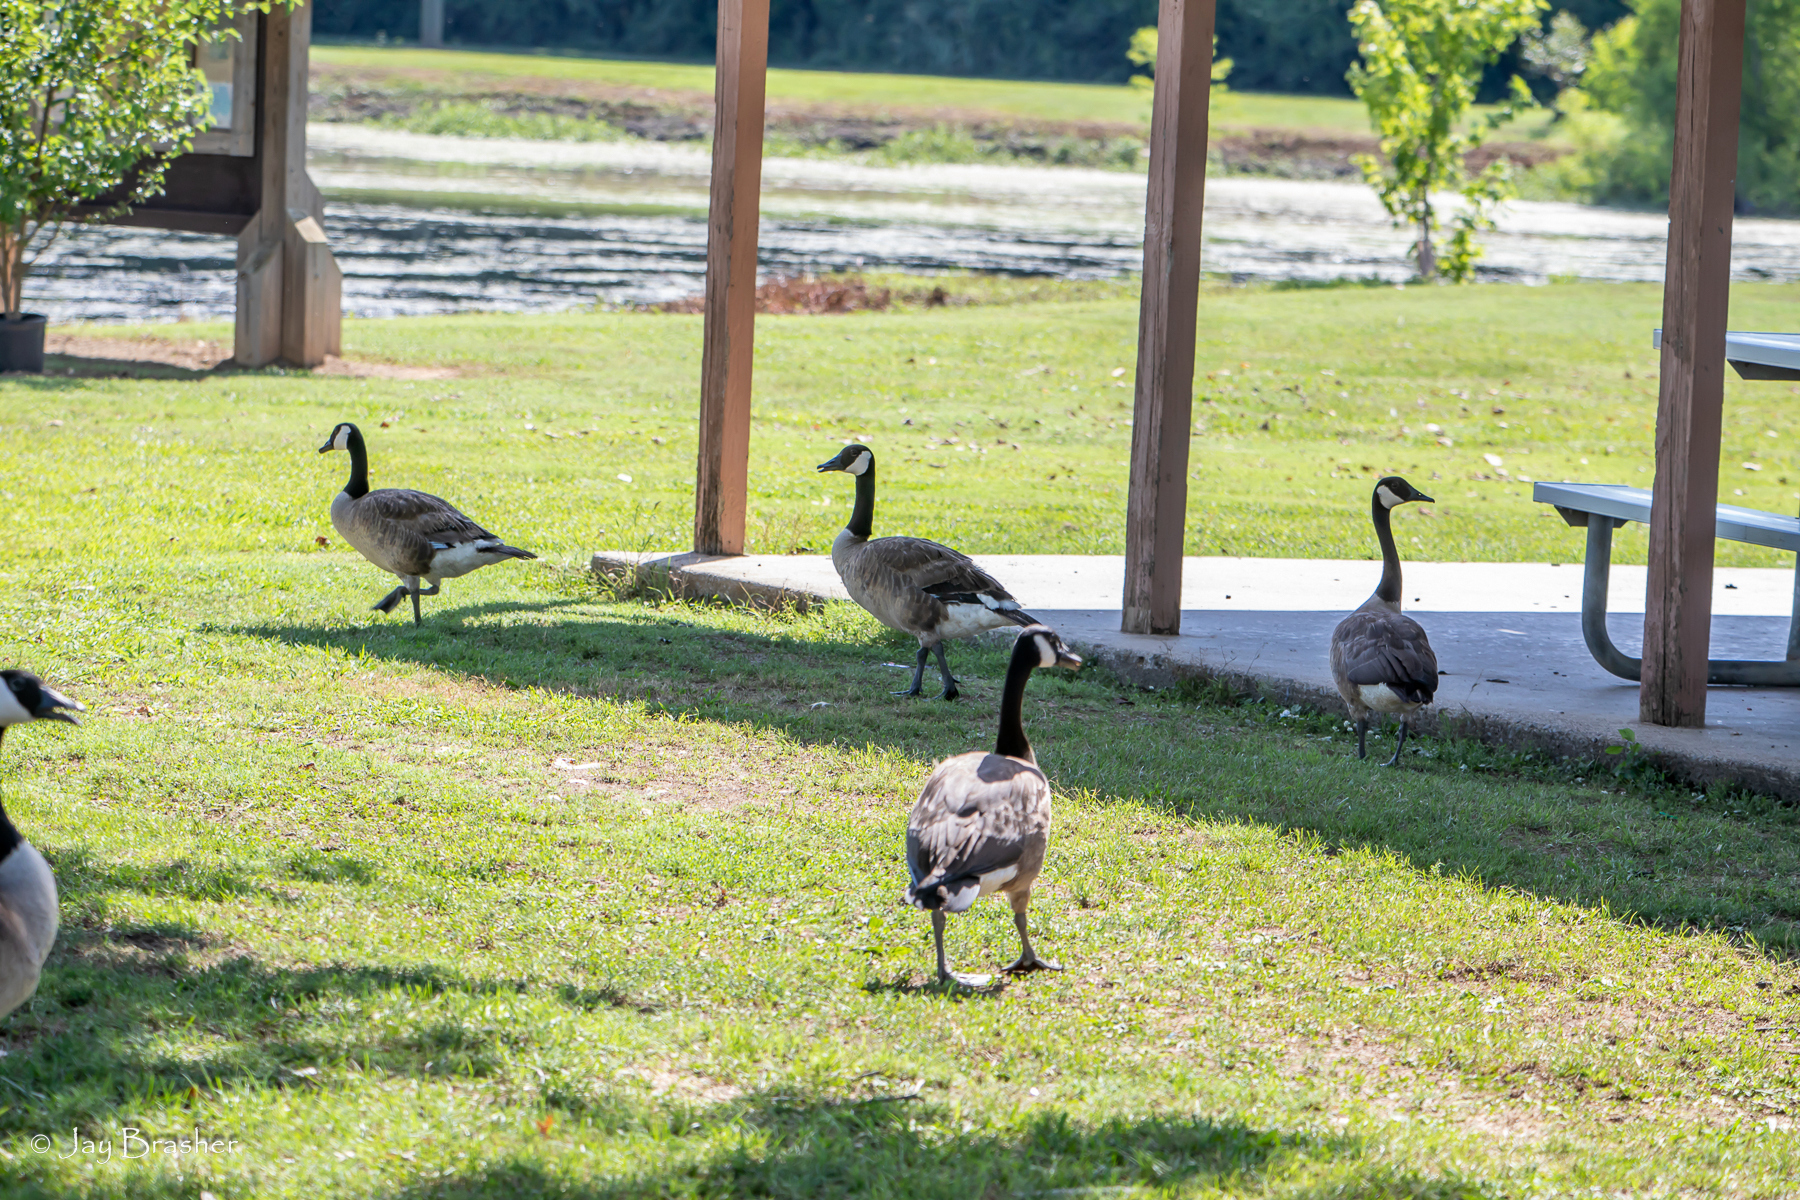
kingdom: Animalia
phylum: Chordata
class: Aves
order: Anseriformes
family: Anatidae
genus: Branta
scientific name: Branta canadensis
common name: Canada goose
